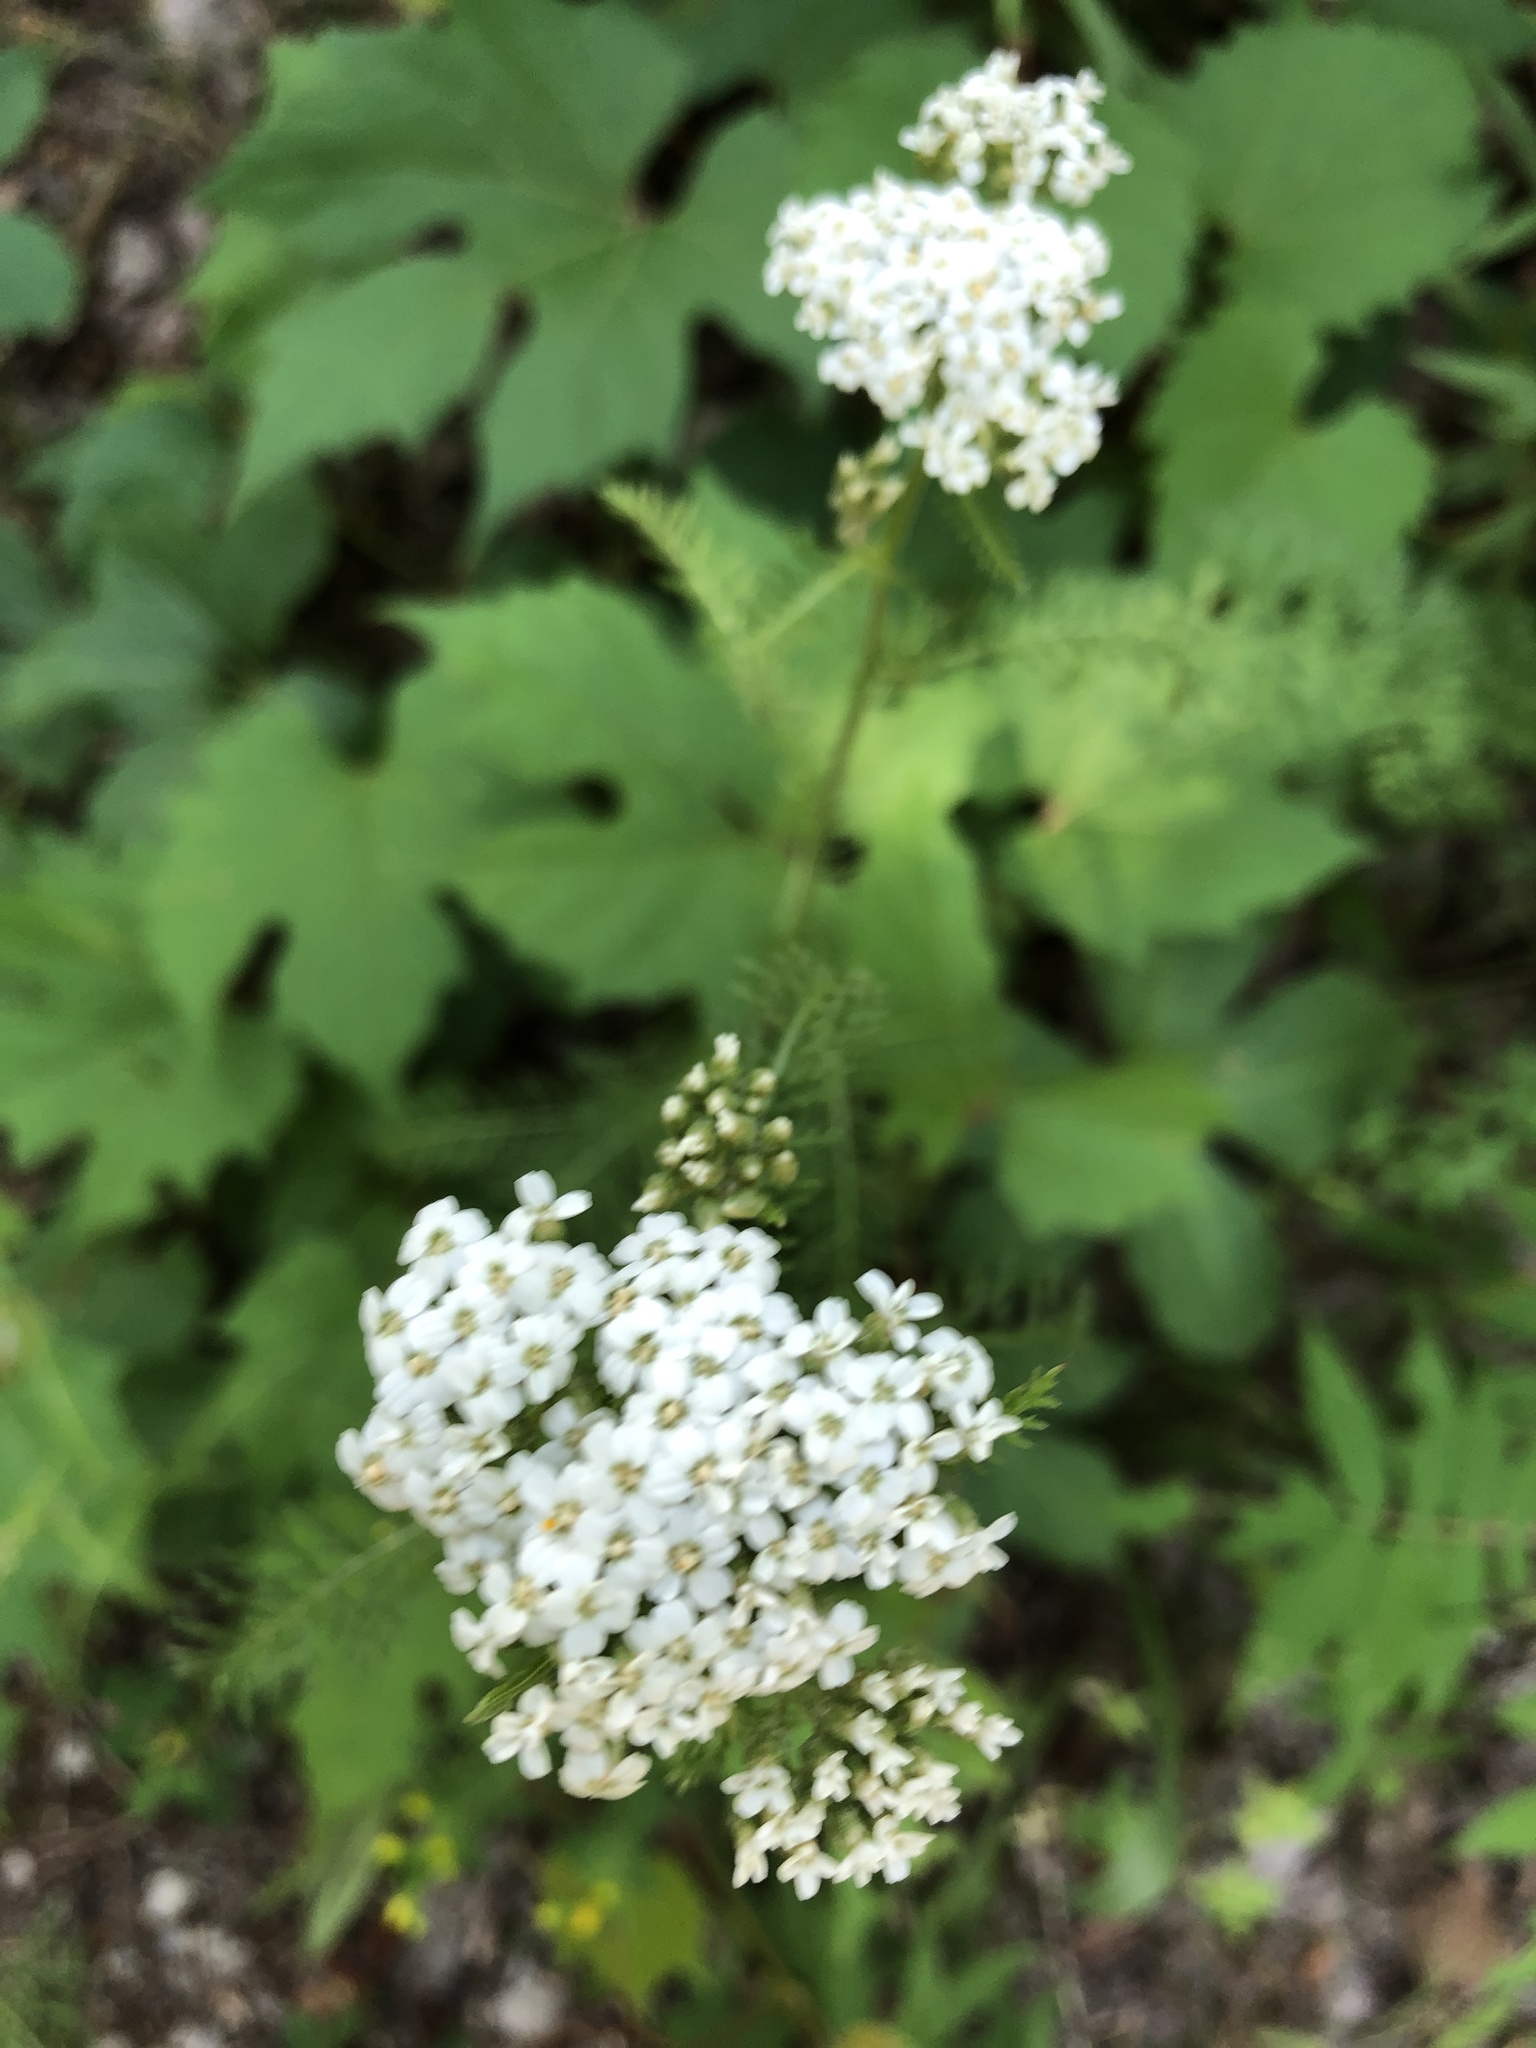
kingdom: Plantae
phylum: Tracheophyta
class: Magnoliopsida
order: Asterales
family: Asteraceae
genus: Achillea
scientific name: Achillea millefolium
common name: Yarrow
